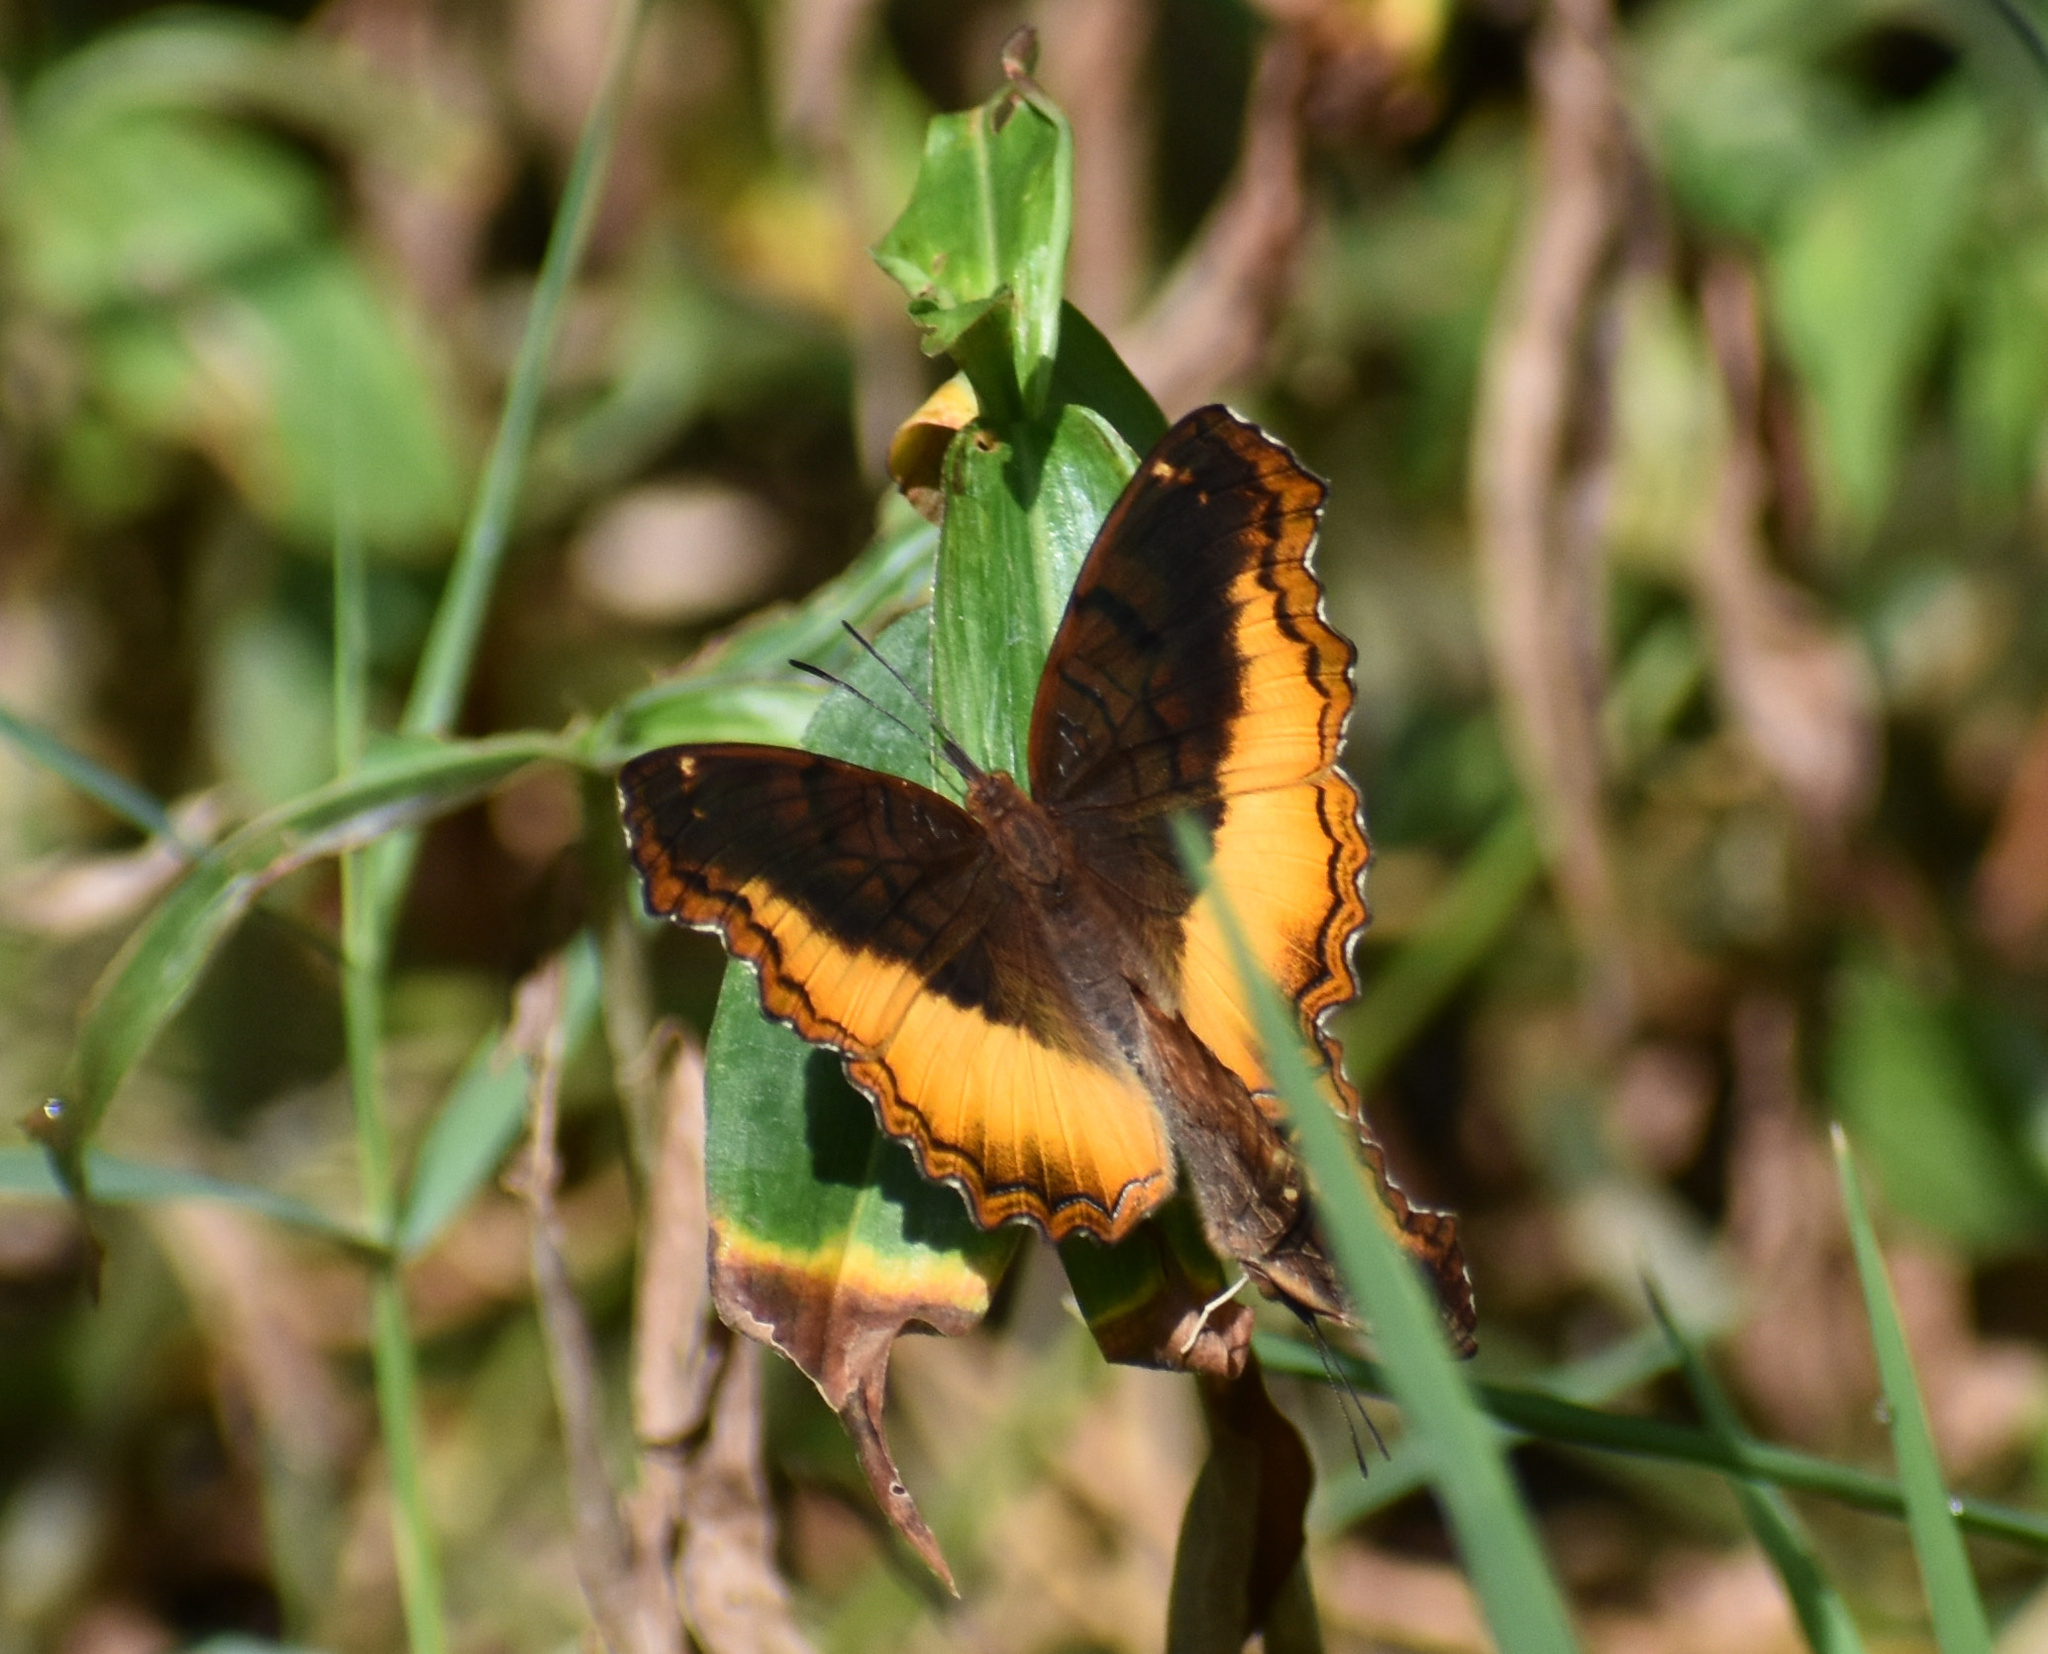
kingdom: Animalia
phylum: Arthropoda
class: Insecta
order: Lepidoptera
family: Nymphalidae
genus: Eurytela
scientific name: Eurytela dryope
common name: Golden piper
